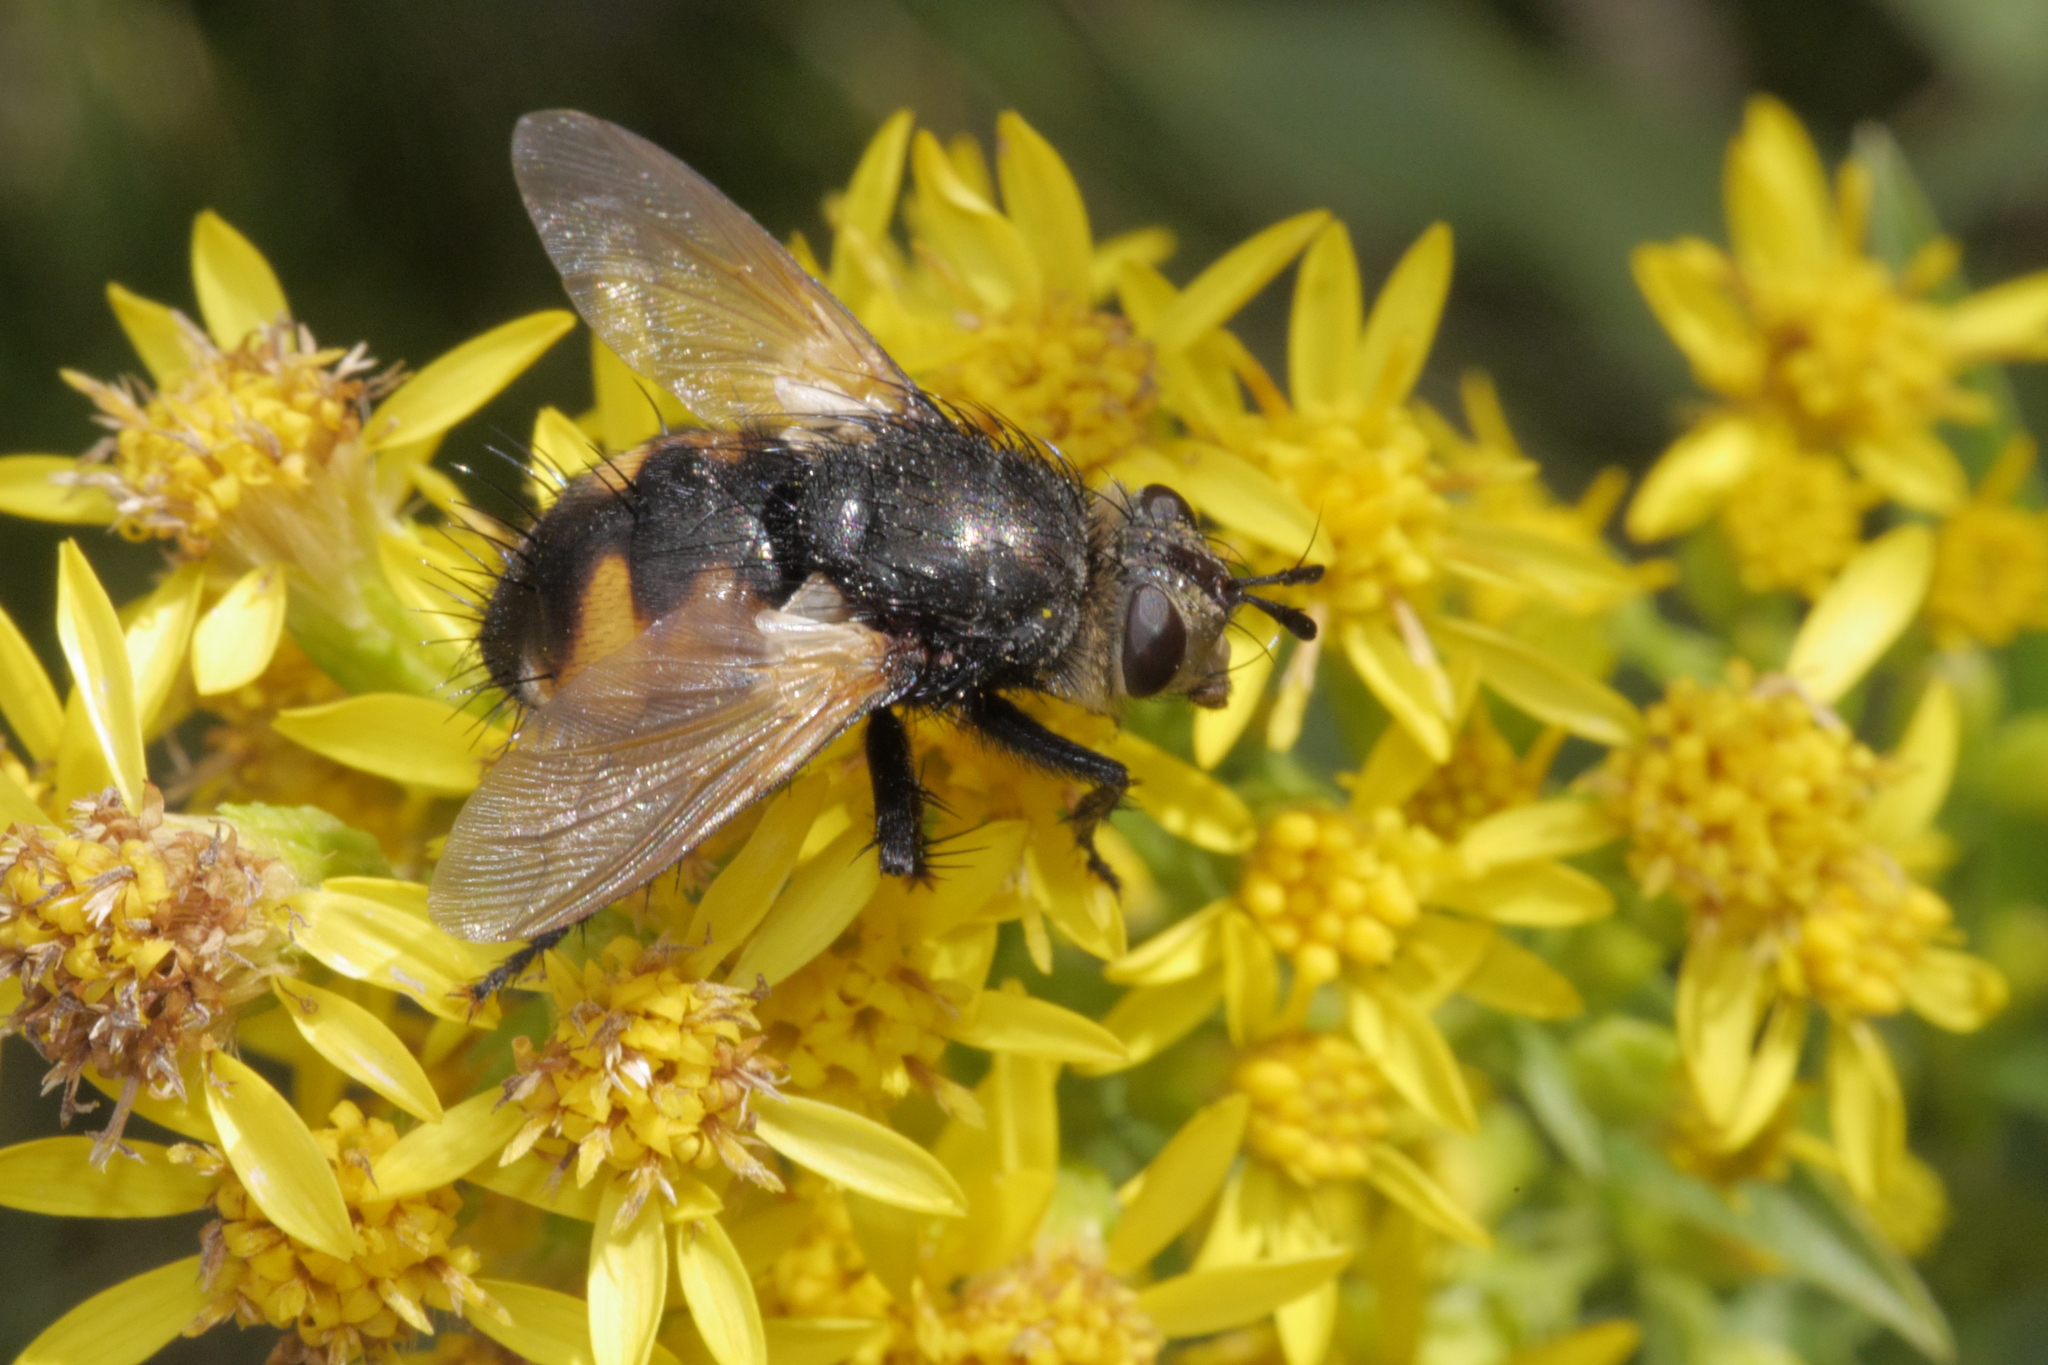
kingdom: Animalia
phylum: Arthropoda
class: Insecta
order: Diptera
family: Tachinidae
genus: Nowickia
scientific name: Nowickia ferox
